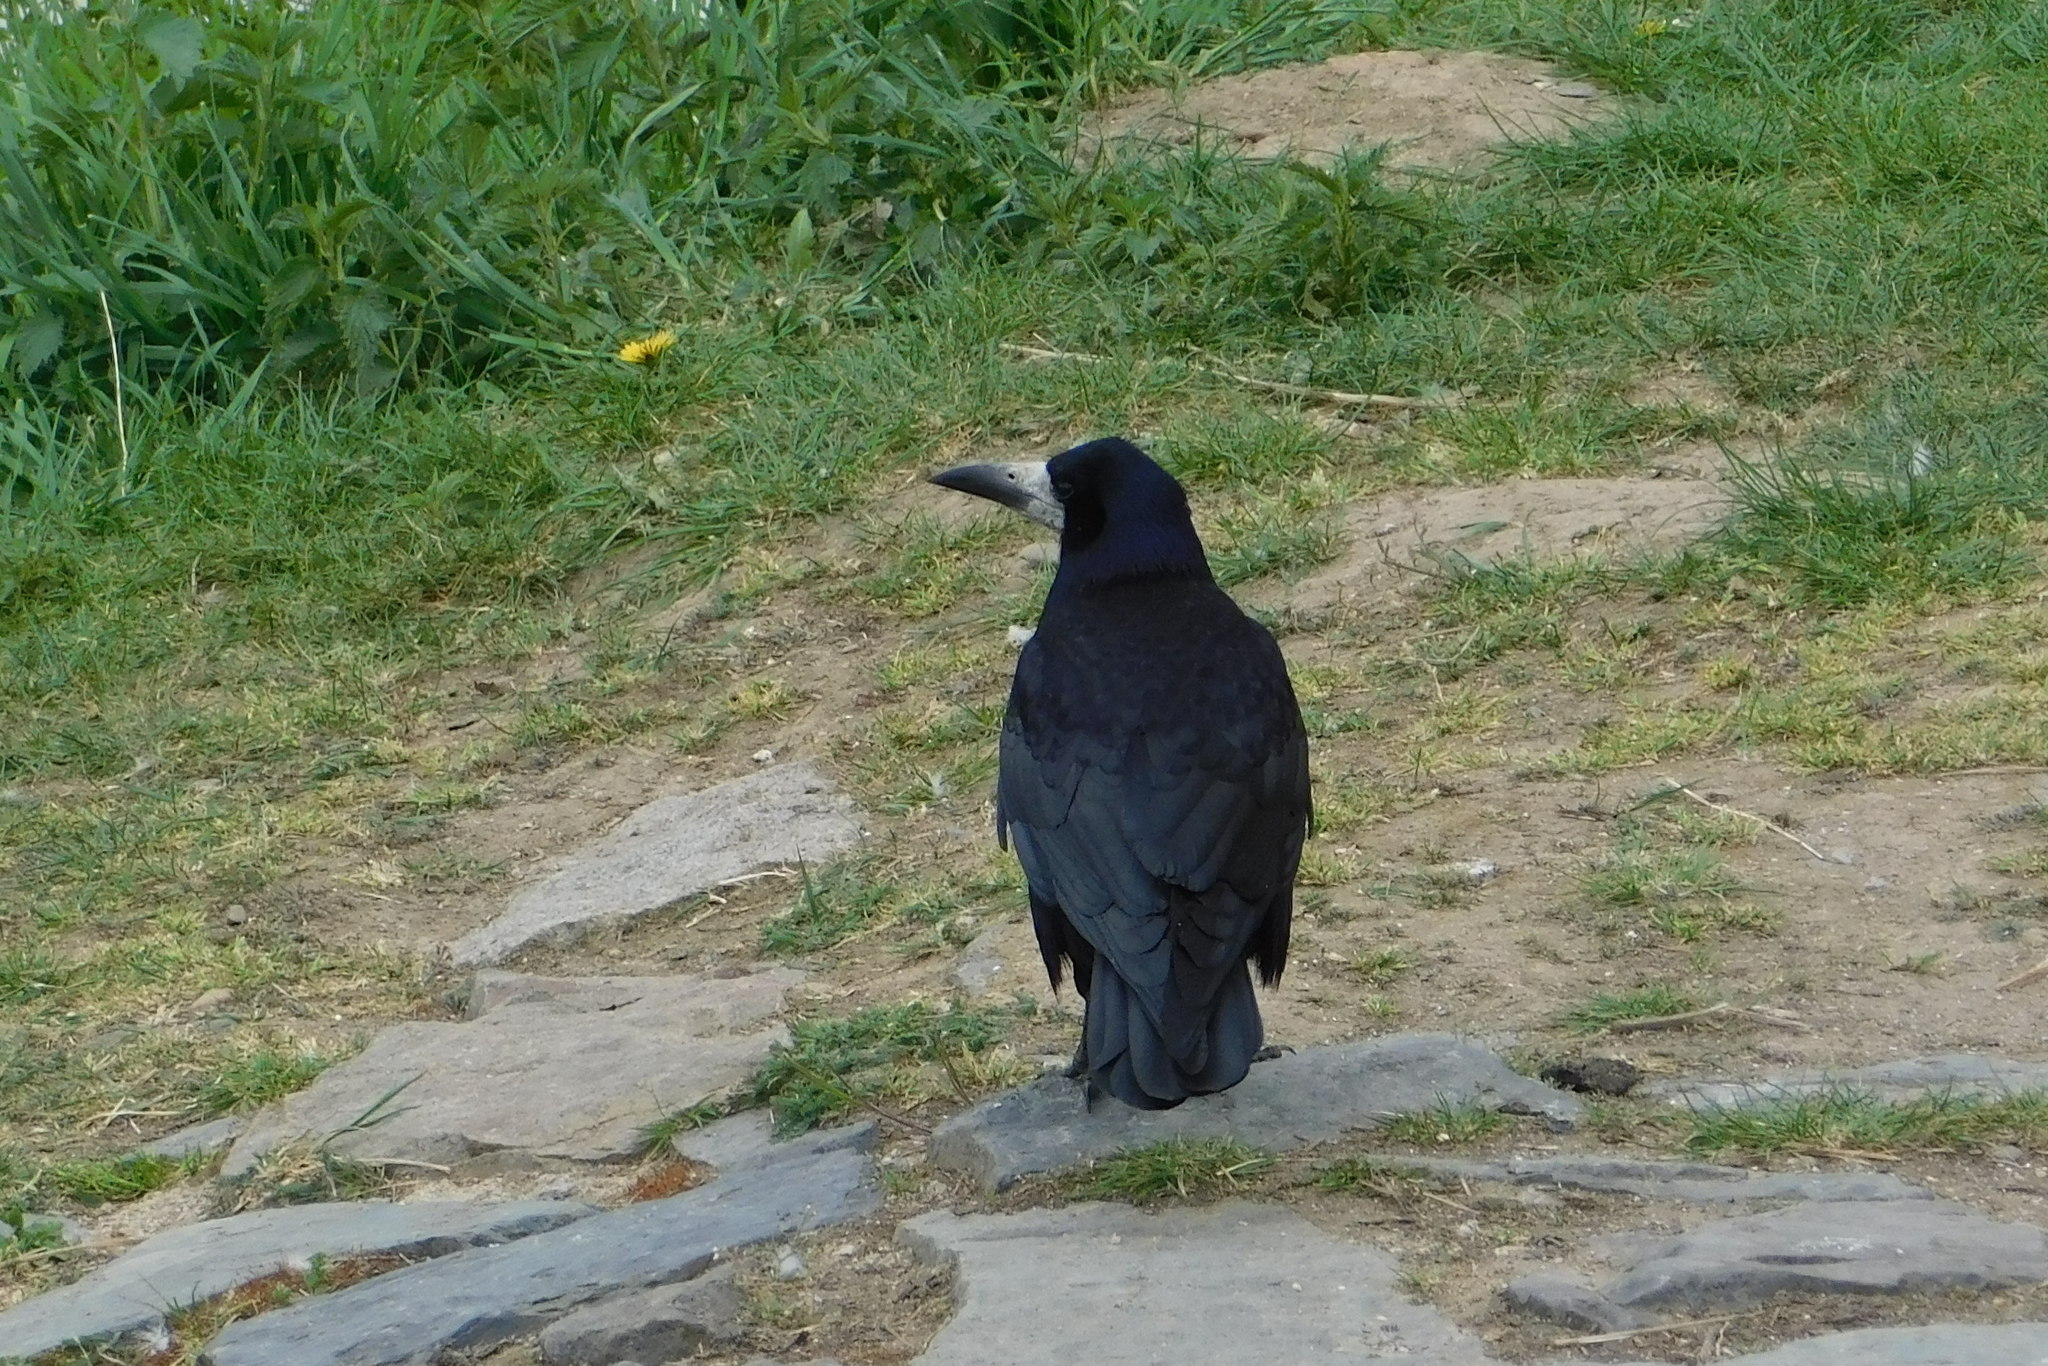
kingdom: Animalia
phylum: Chordata
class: Aves
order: Passeriformes
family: Corvidae
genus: Corvus
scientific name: Corvus frugilegus
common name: Rook
